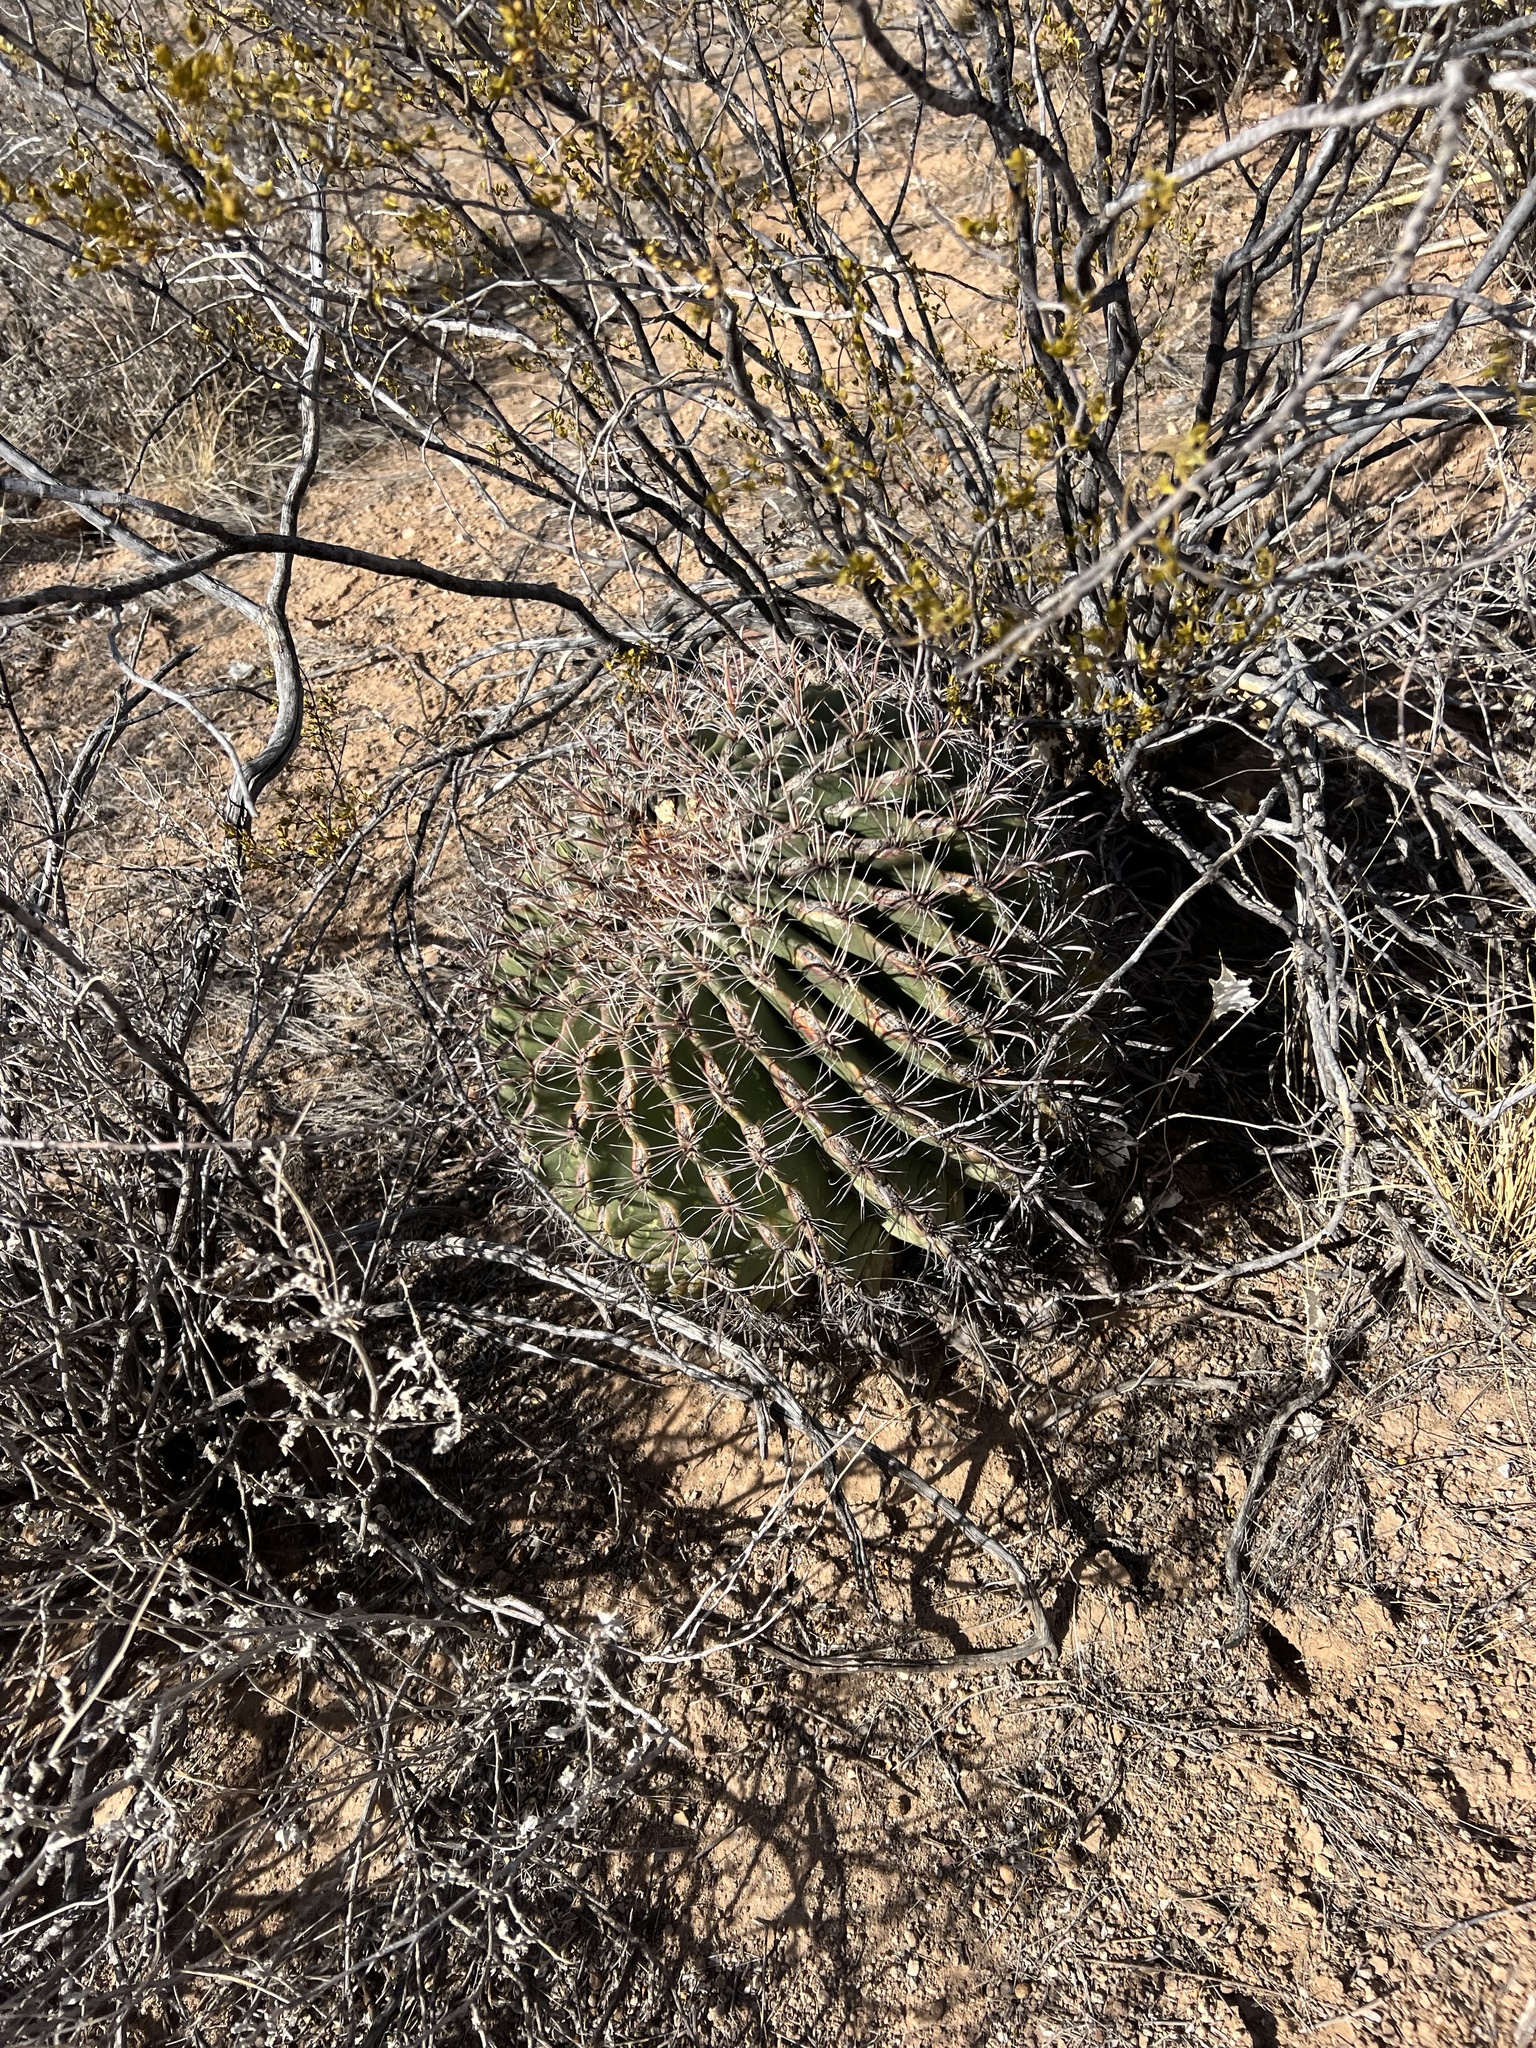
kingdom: Plantae
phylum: Tracheophyta
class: Magnoliopsida
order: Caryophyllales
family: Cactaceae
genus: Ferocactus
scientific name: Ferocactus wislizeni
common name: Candy barrel cactus
